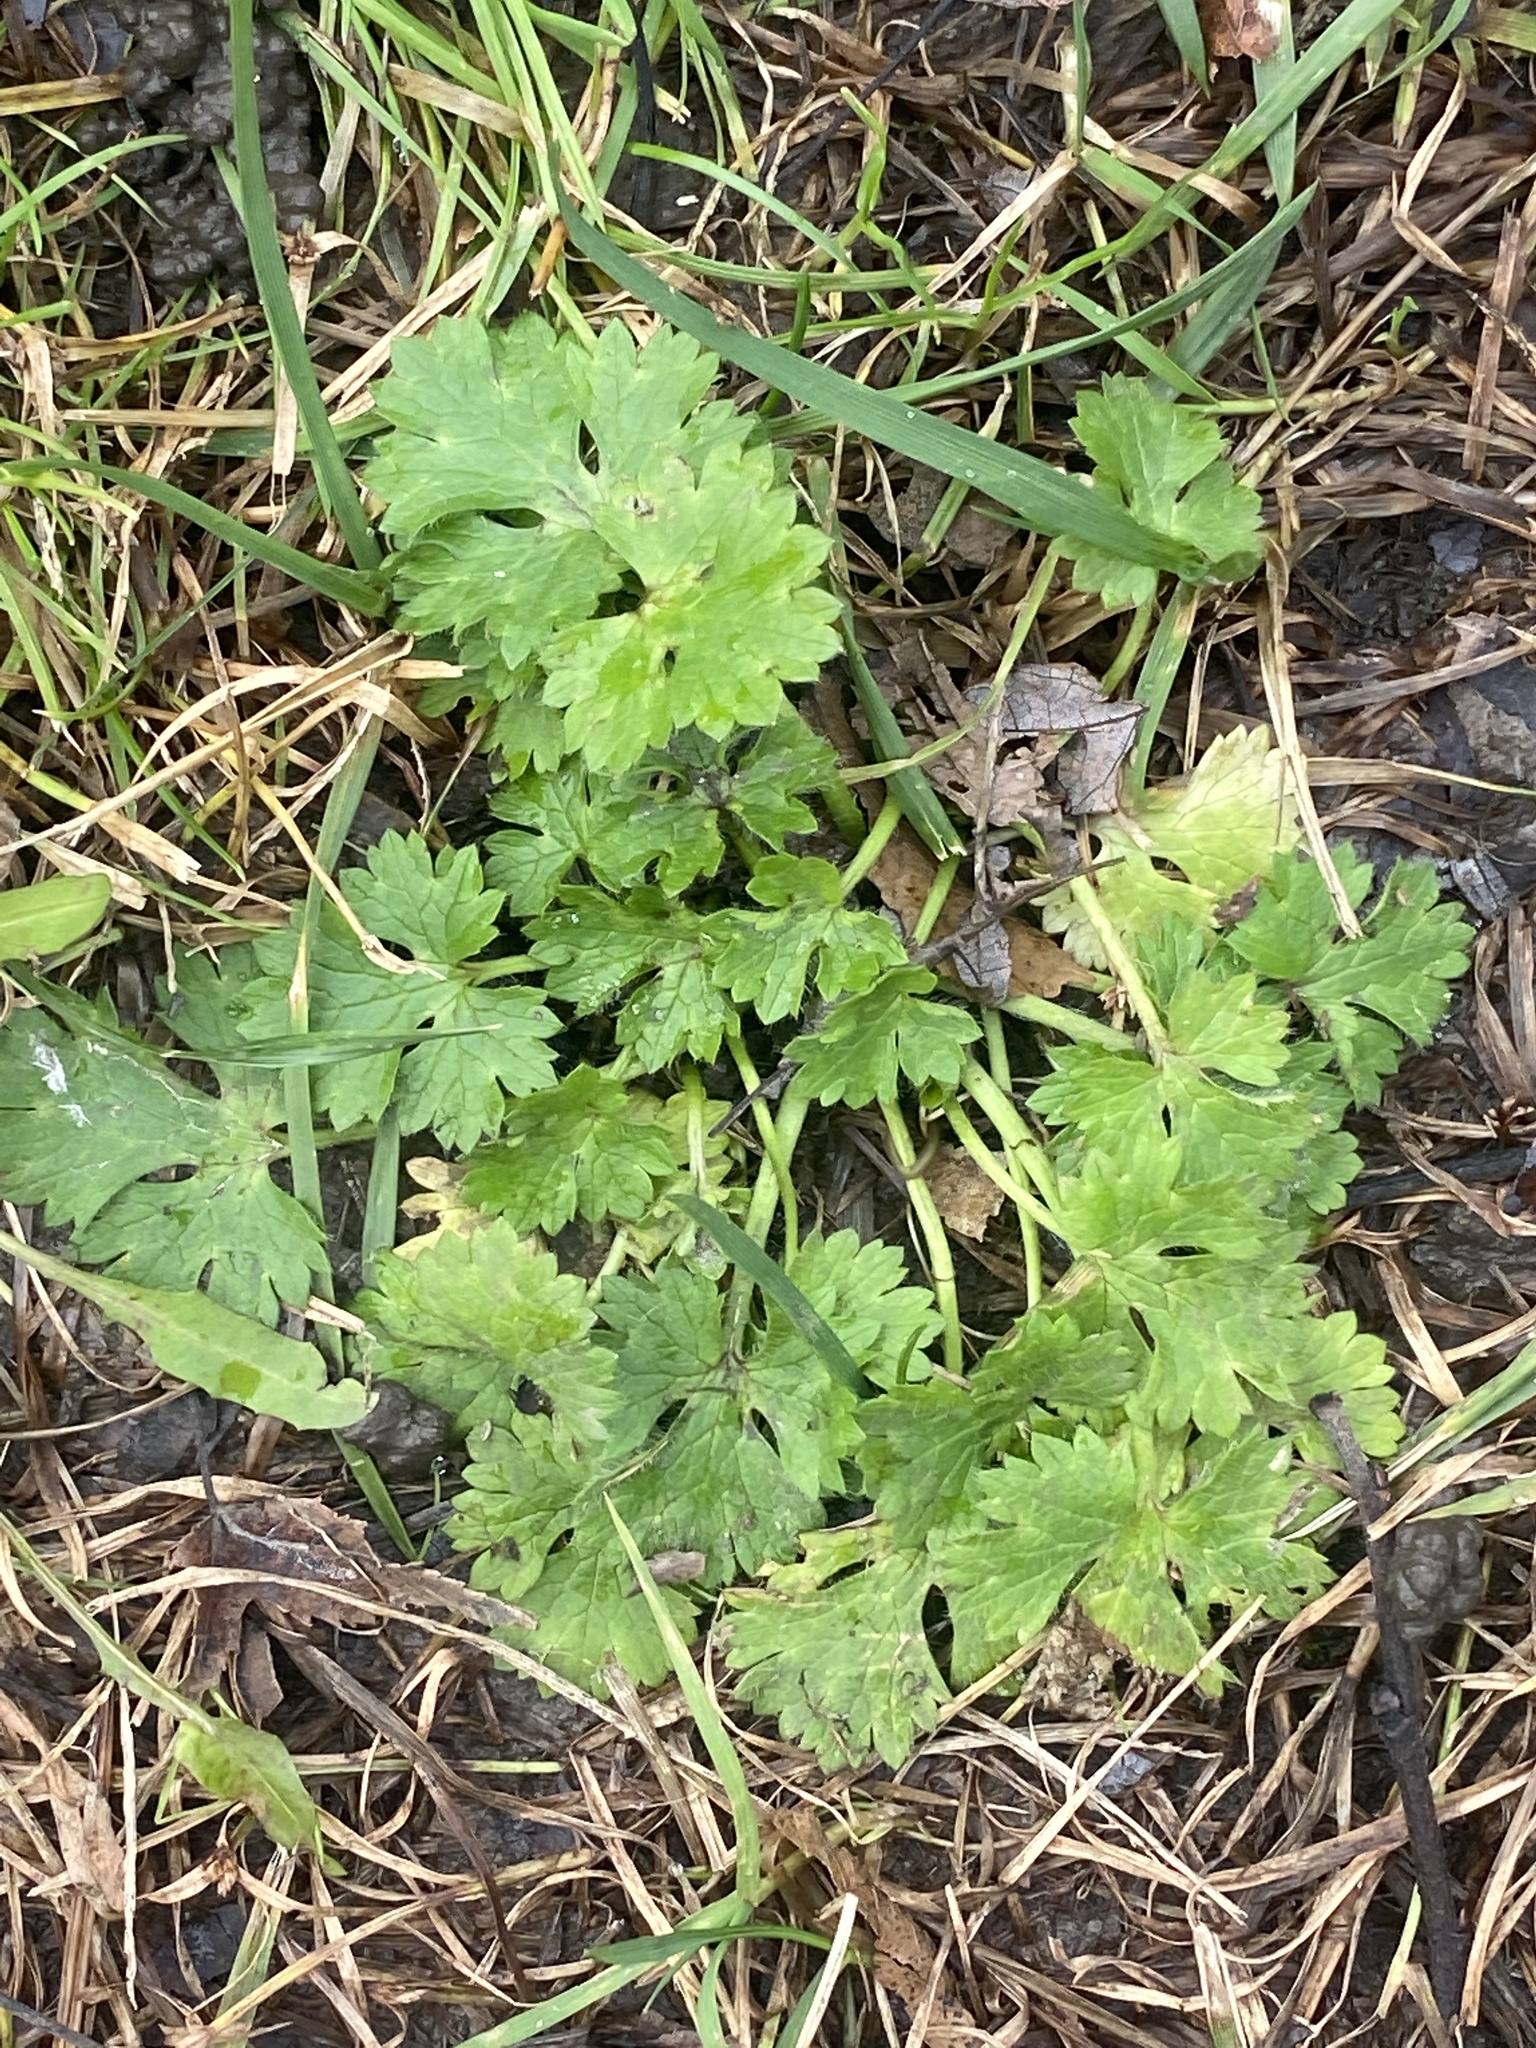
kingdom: Plantae
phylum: Tracheophyta
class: Magnoliopsida
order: Ranunculales
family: Ranunculaceae
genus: Ranunculus
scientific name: Ranunculus bulbosus
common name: Bulbous buttercup
